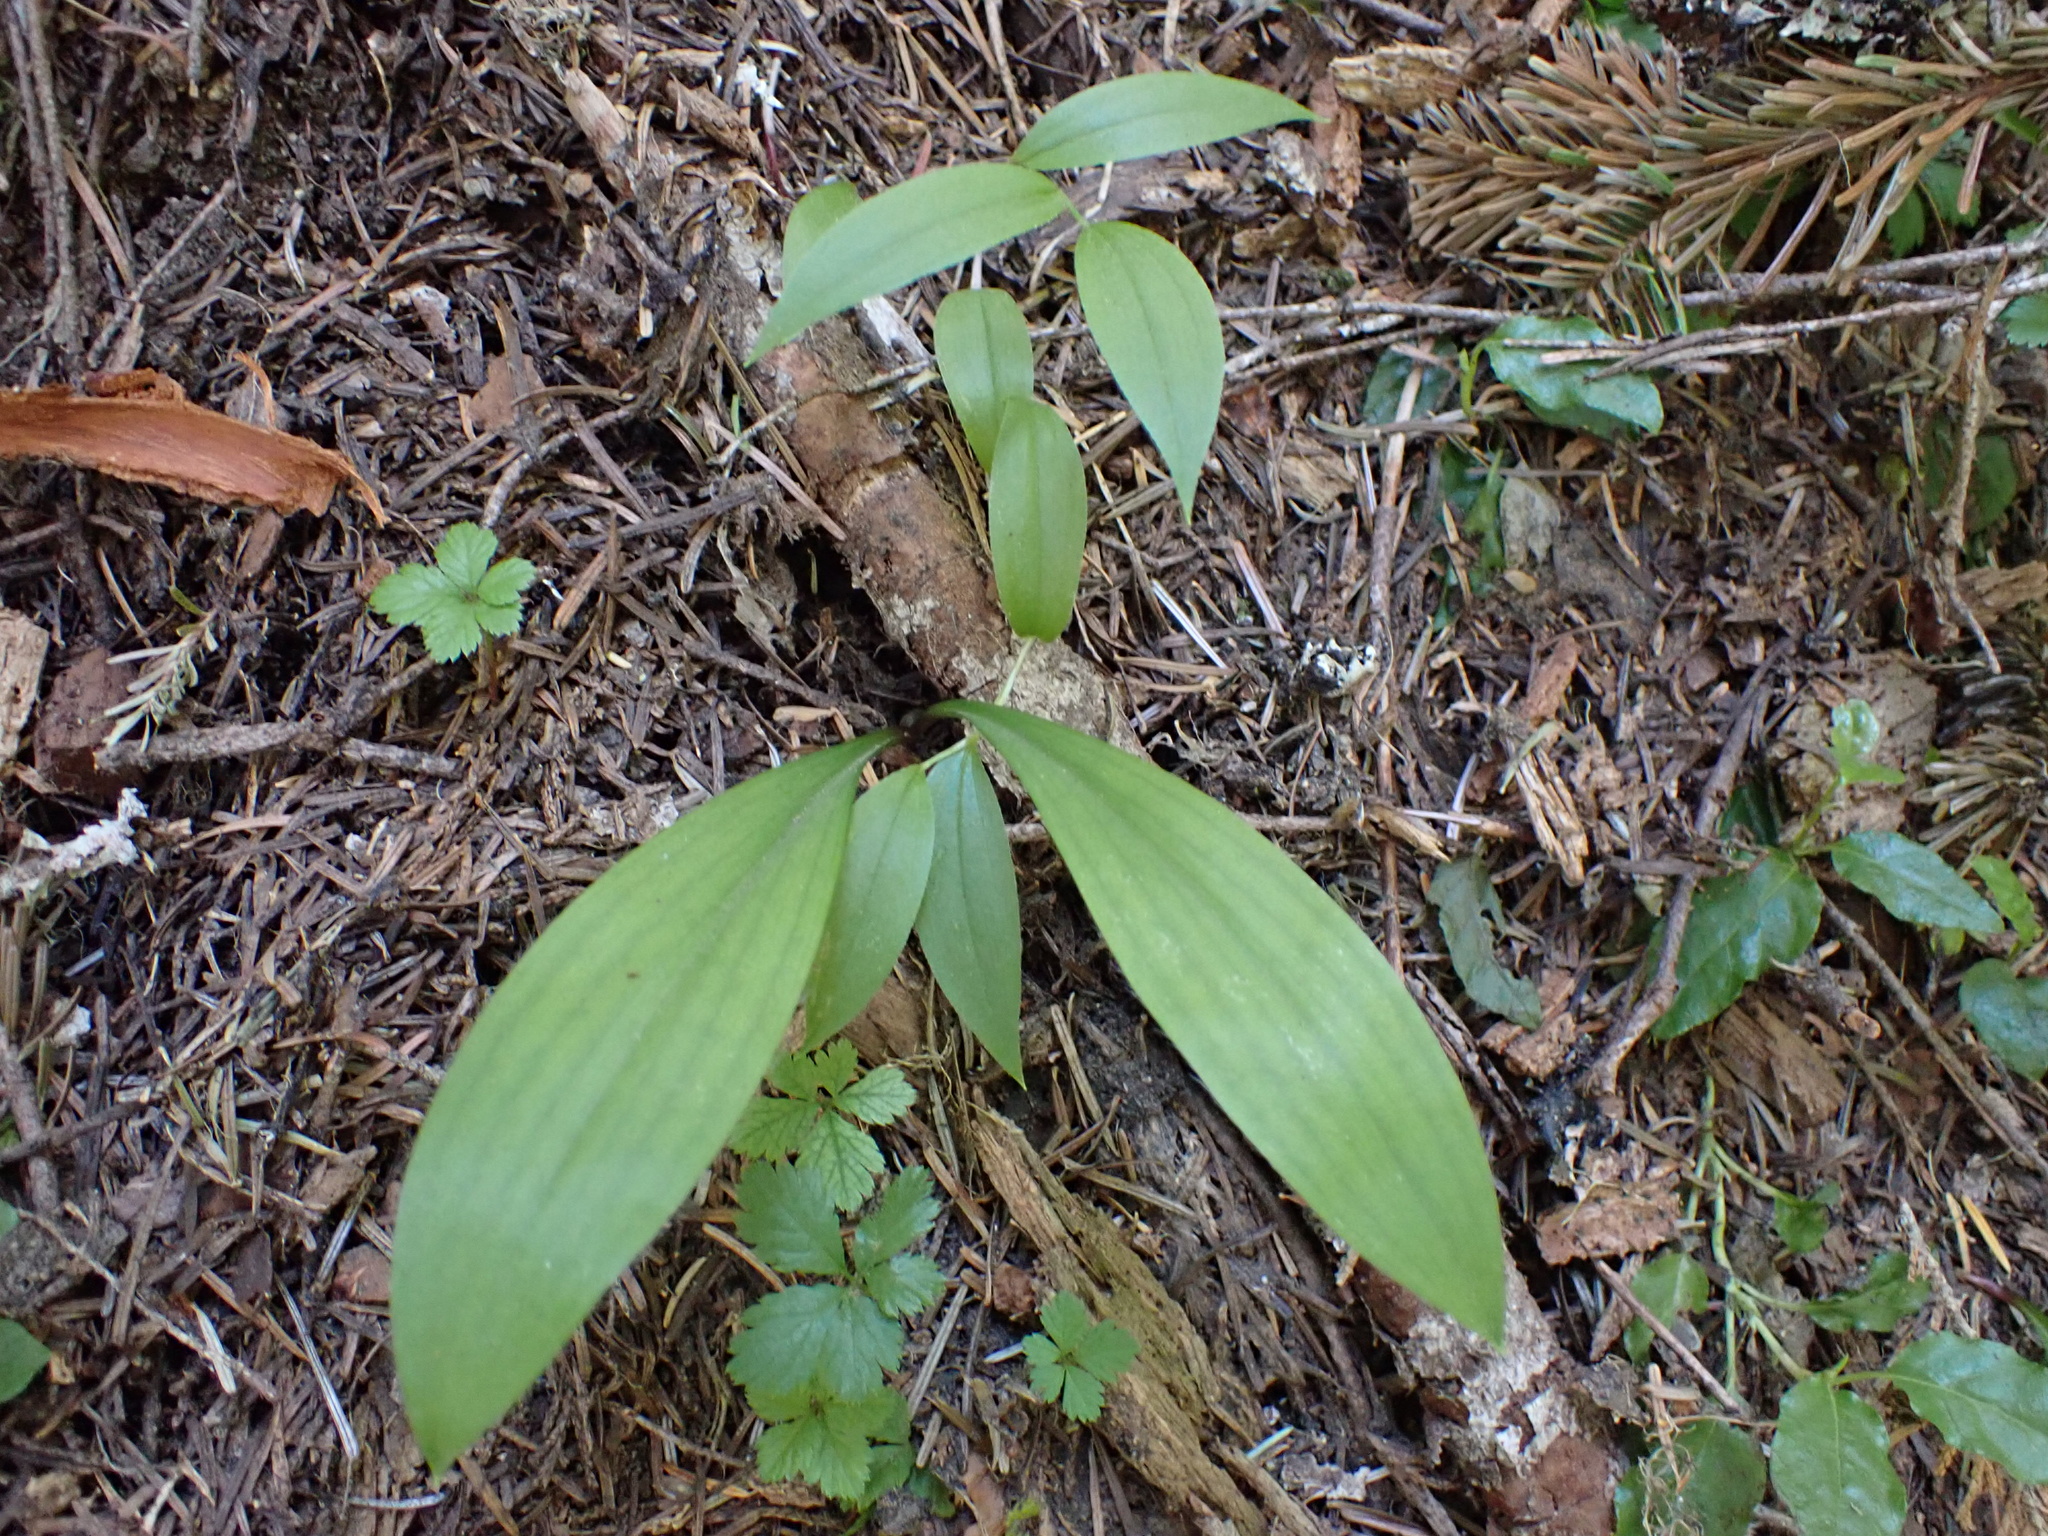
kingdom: Plantae
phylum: Tracheophyta
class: Liliopsida
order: Liliales
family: Liliaceae
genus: Clintonia
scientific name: Clintonia uniflora
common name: Queen's cup
